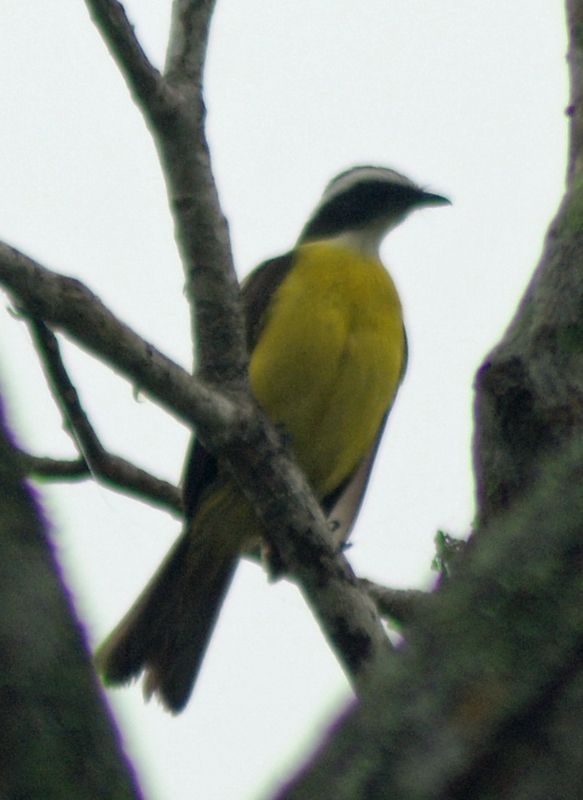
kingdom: Animalia
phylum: Chordata
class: Aves
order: Passeriformes
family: Tyrannidae
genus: Myiozetetes
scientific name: Myiozetetes similis
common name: Social flycatcher
